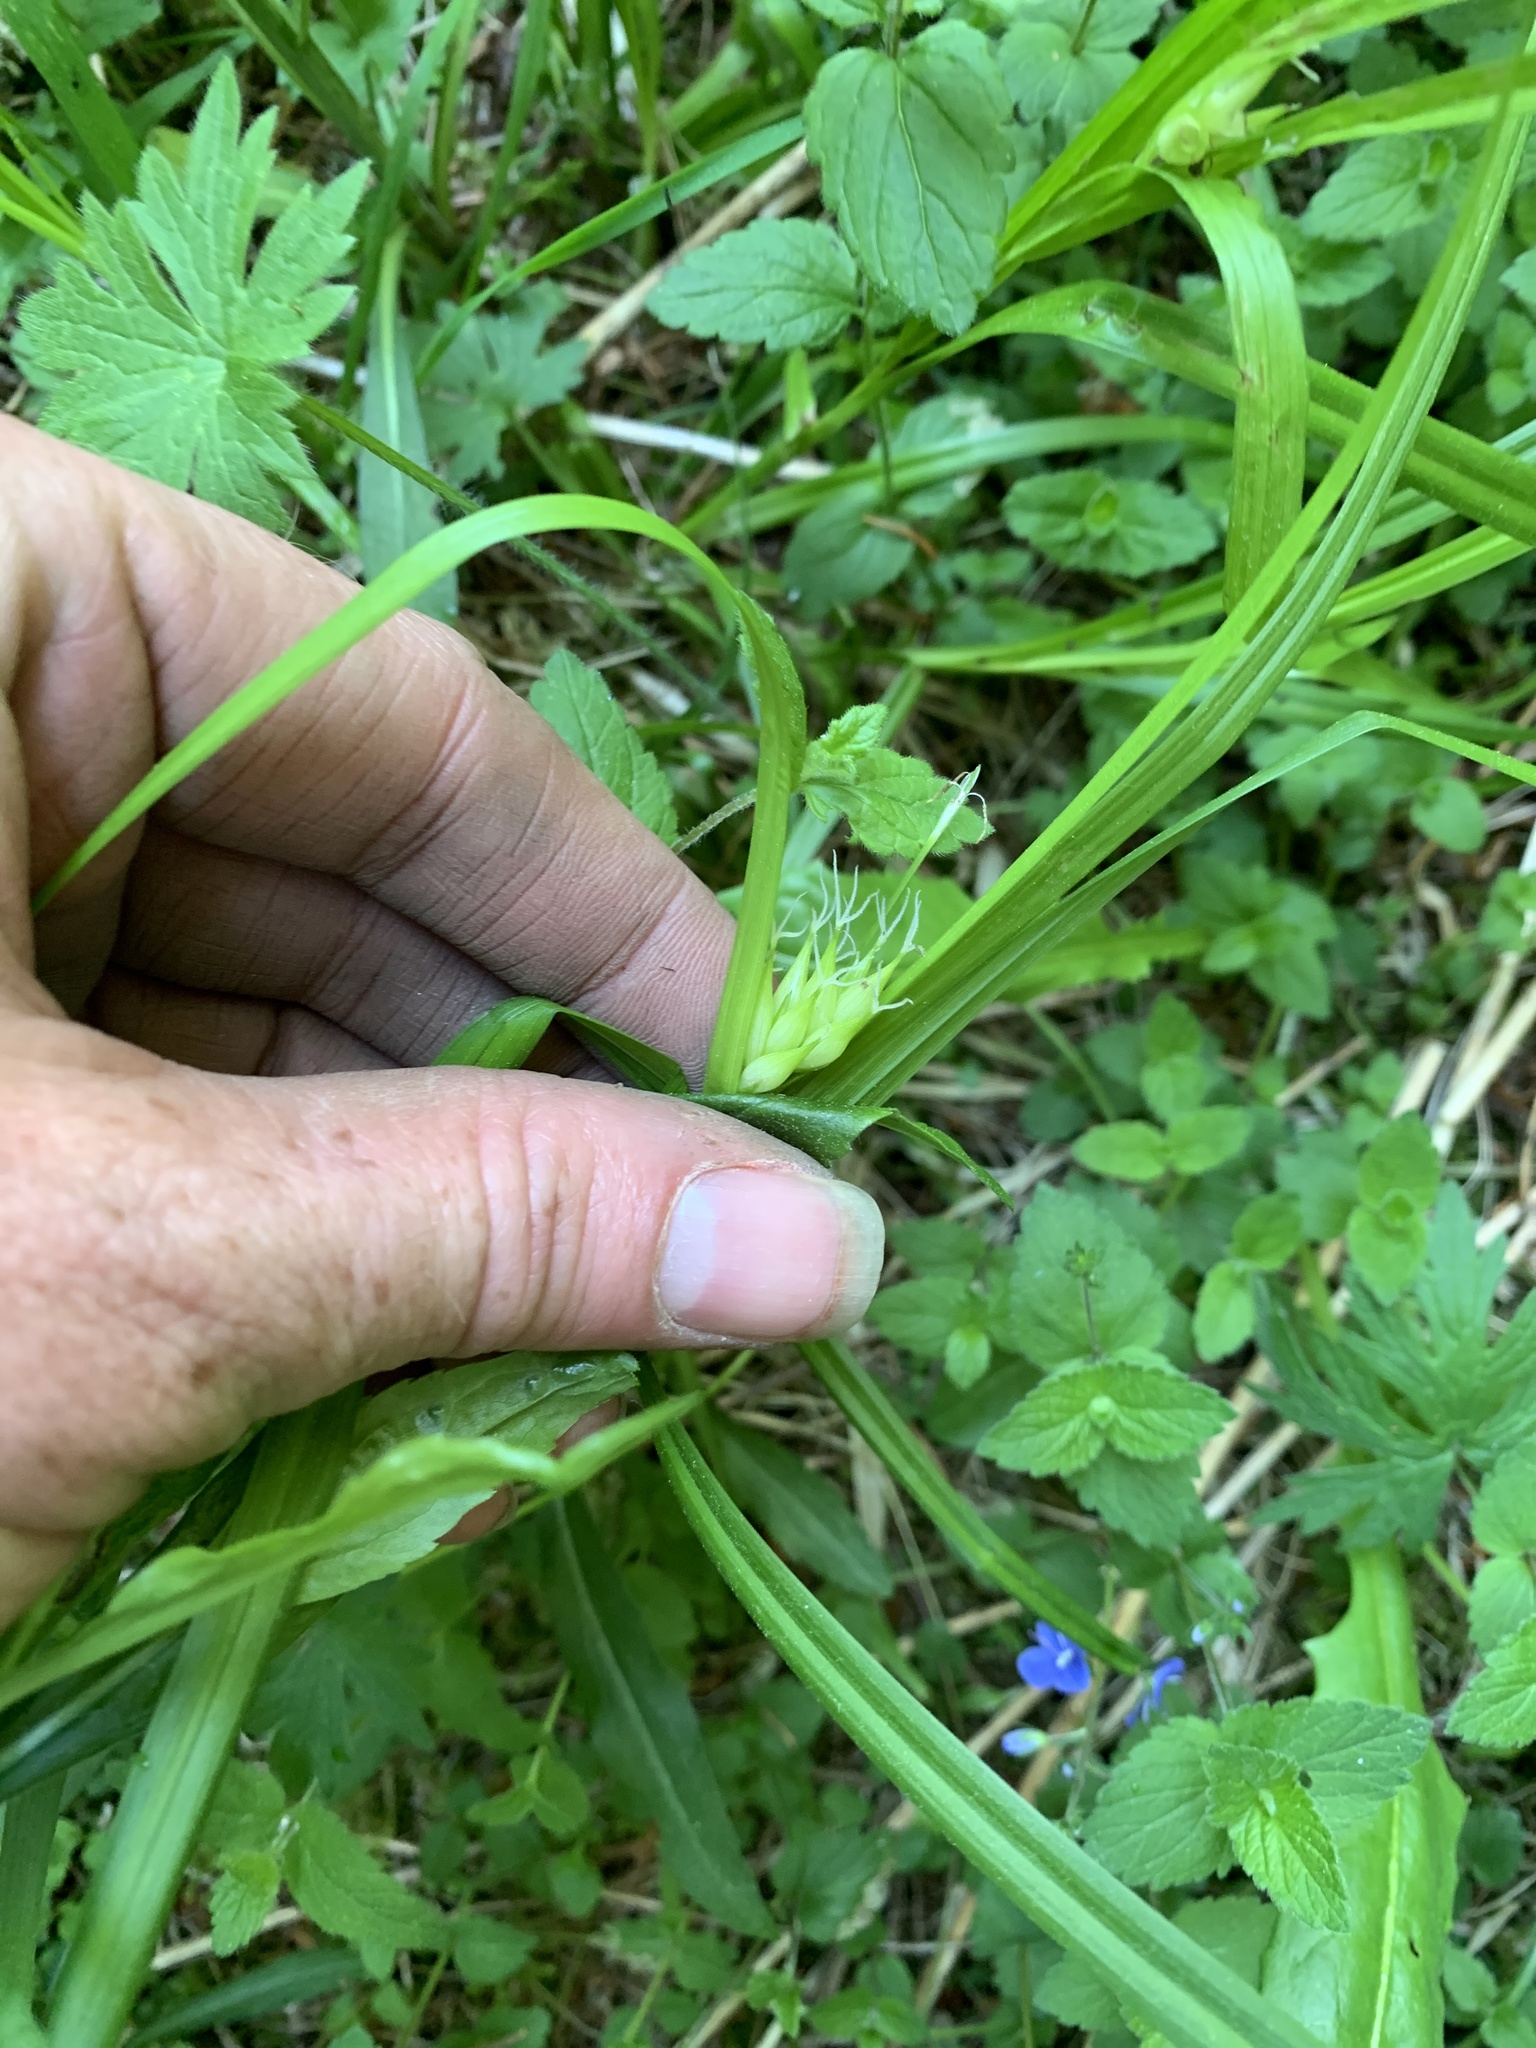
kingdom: Plantae
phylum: Tracheophyta
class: Liliopsida
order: Poales
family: Cyperaceae
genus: Carex
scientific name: Carex intumescens
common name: Greater bladder sedge
